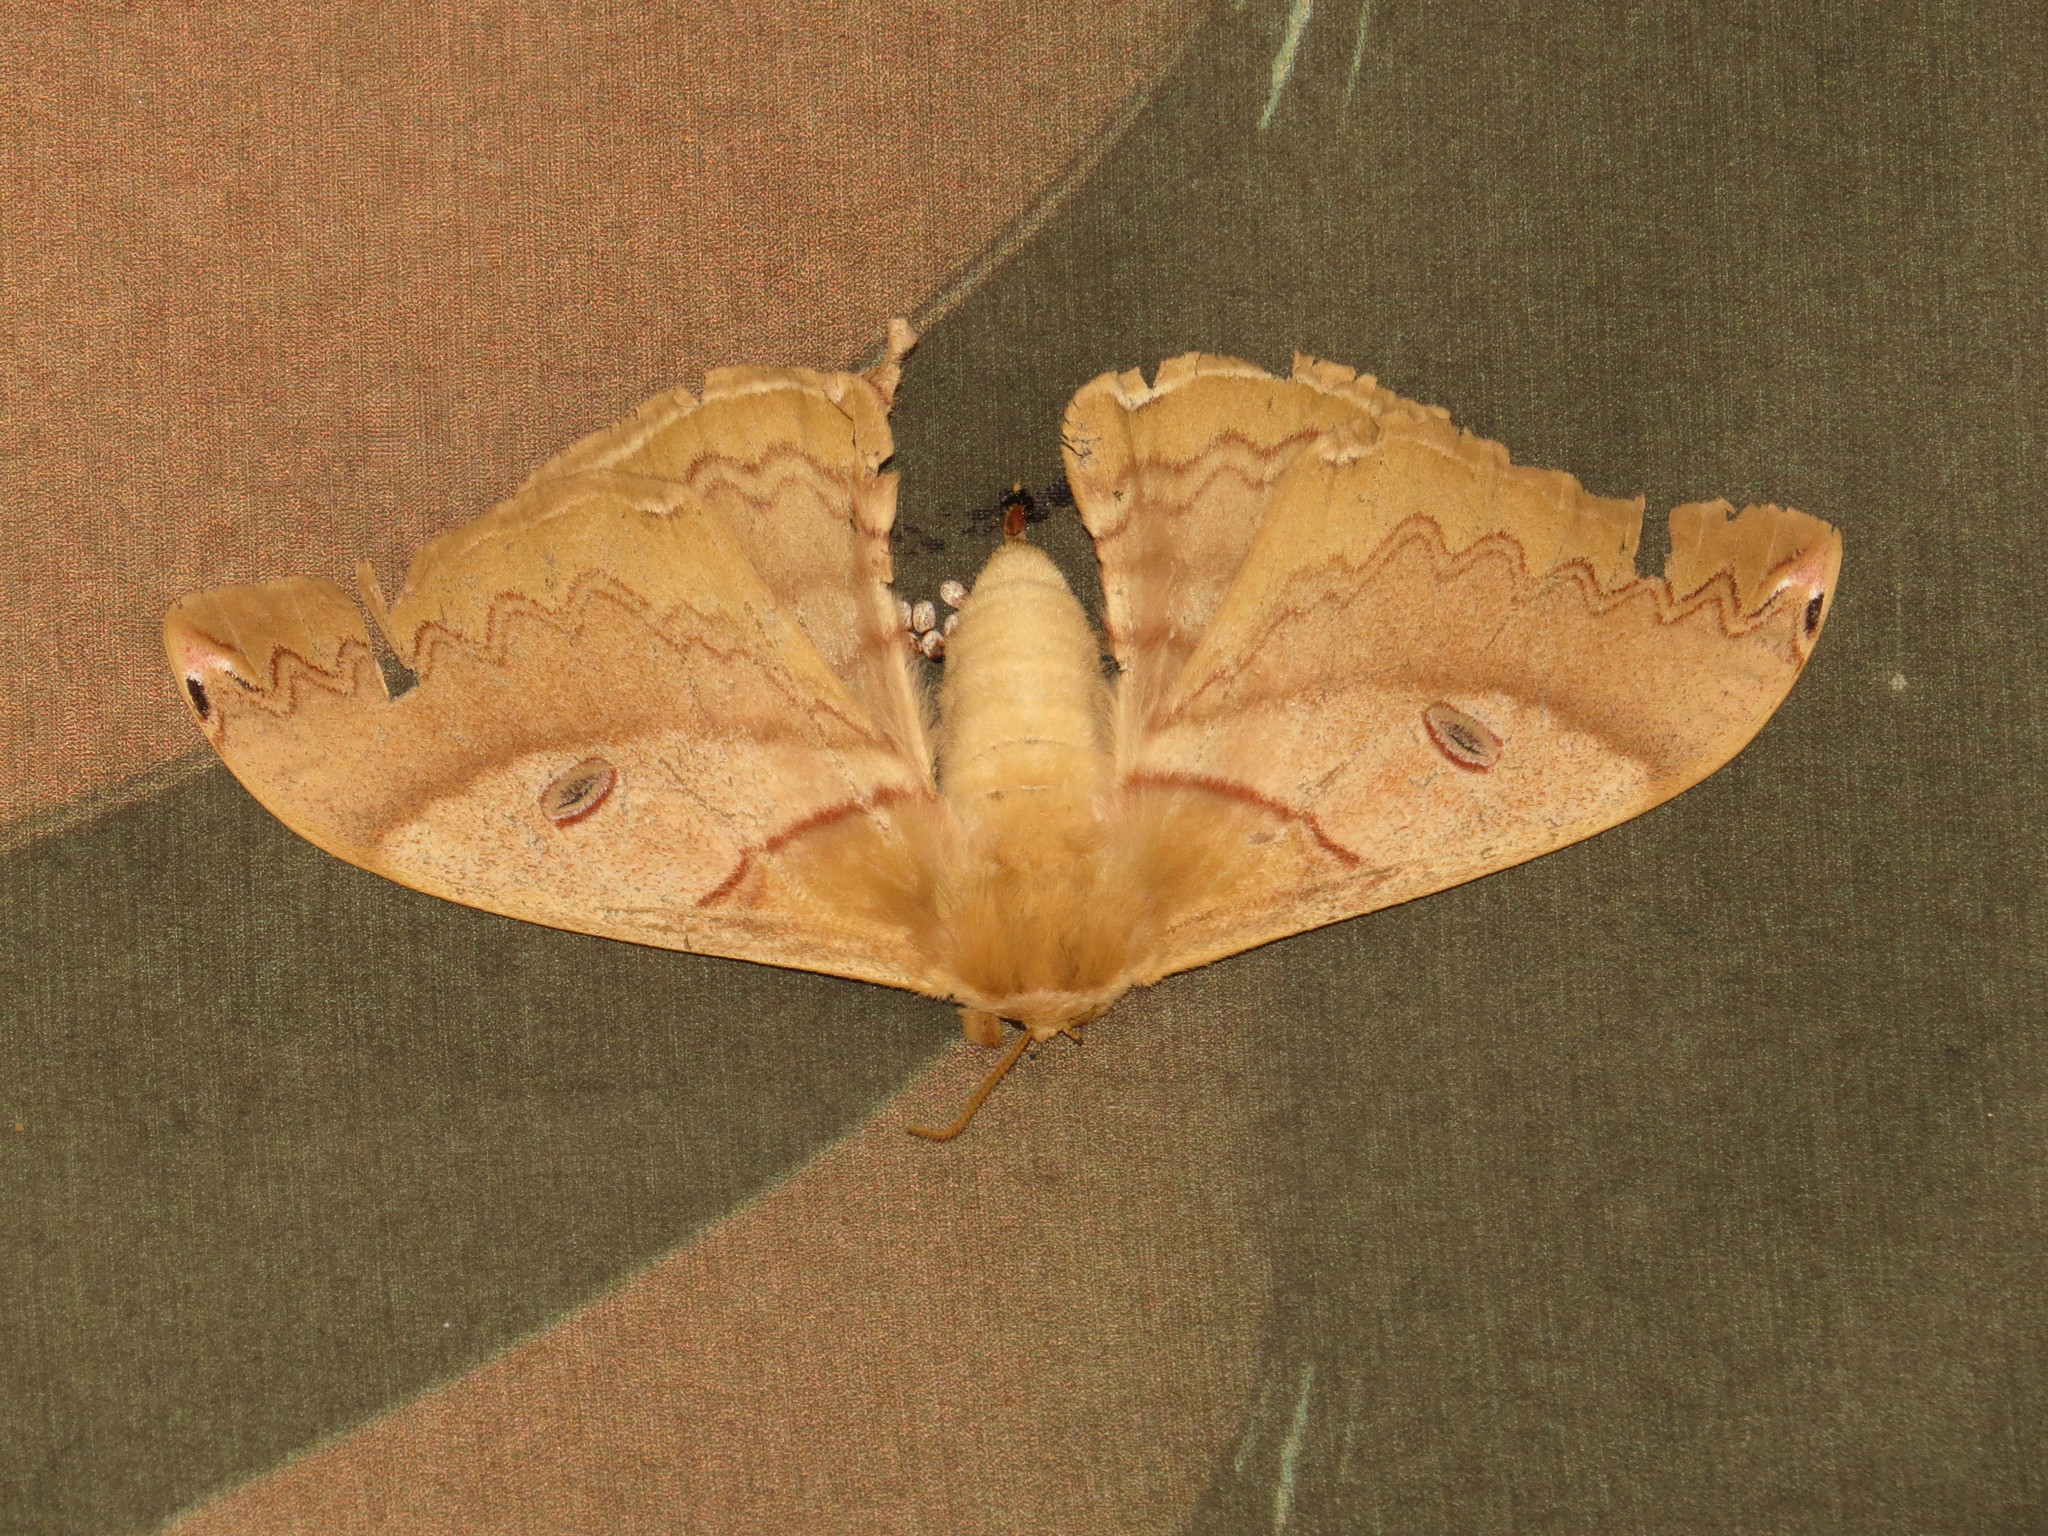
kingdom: Animalia
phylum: Arthropoda
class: Insecta
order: Lepidoptera
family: Saturniidae
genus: Saturnia
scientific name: Saturnia japonica
